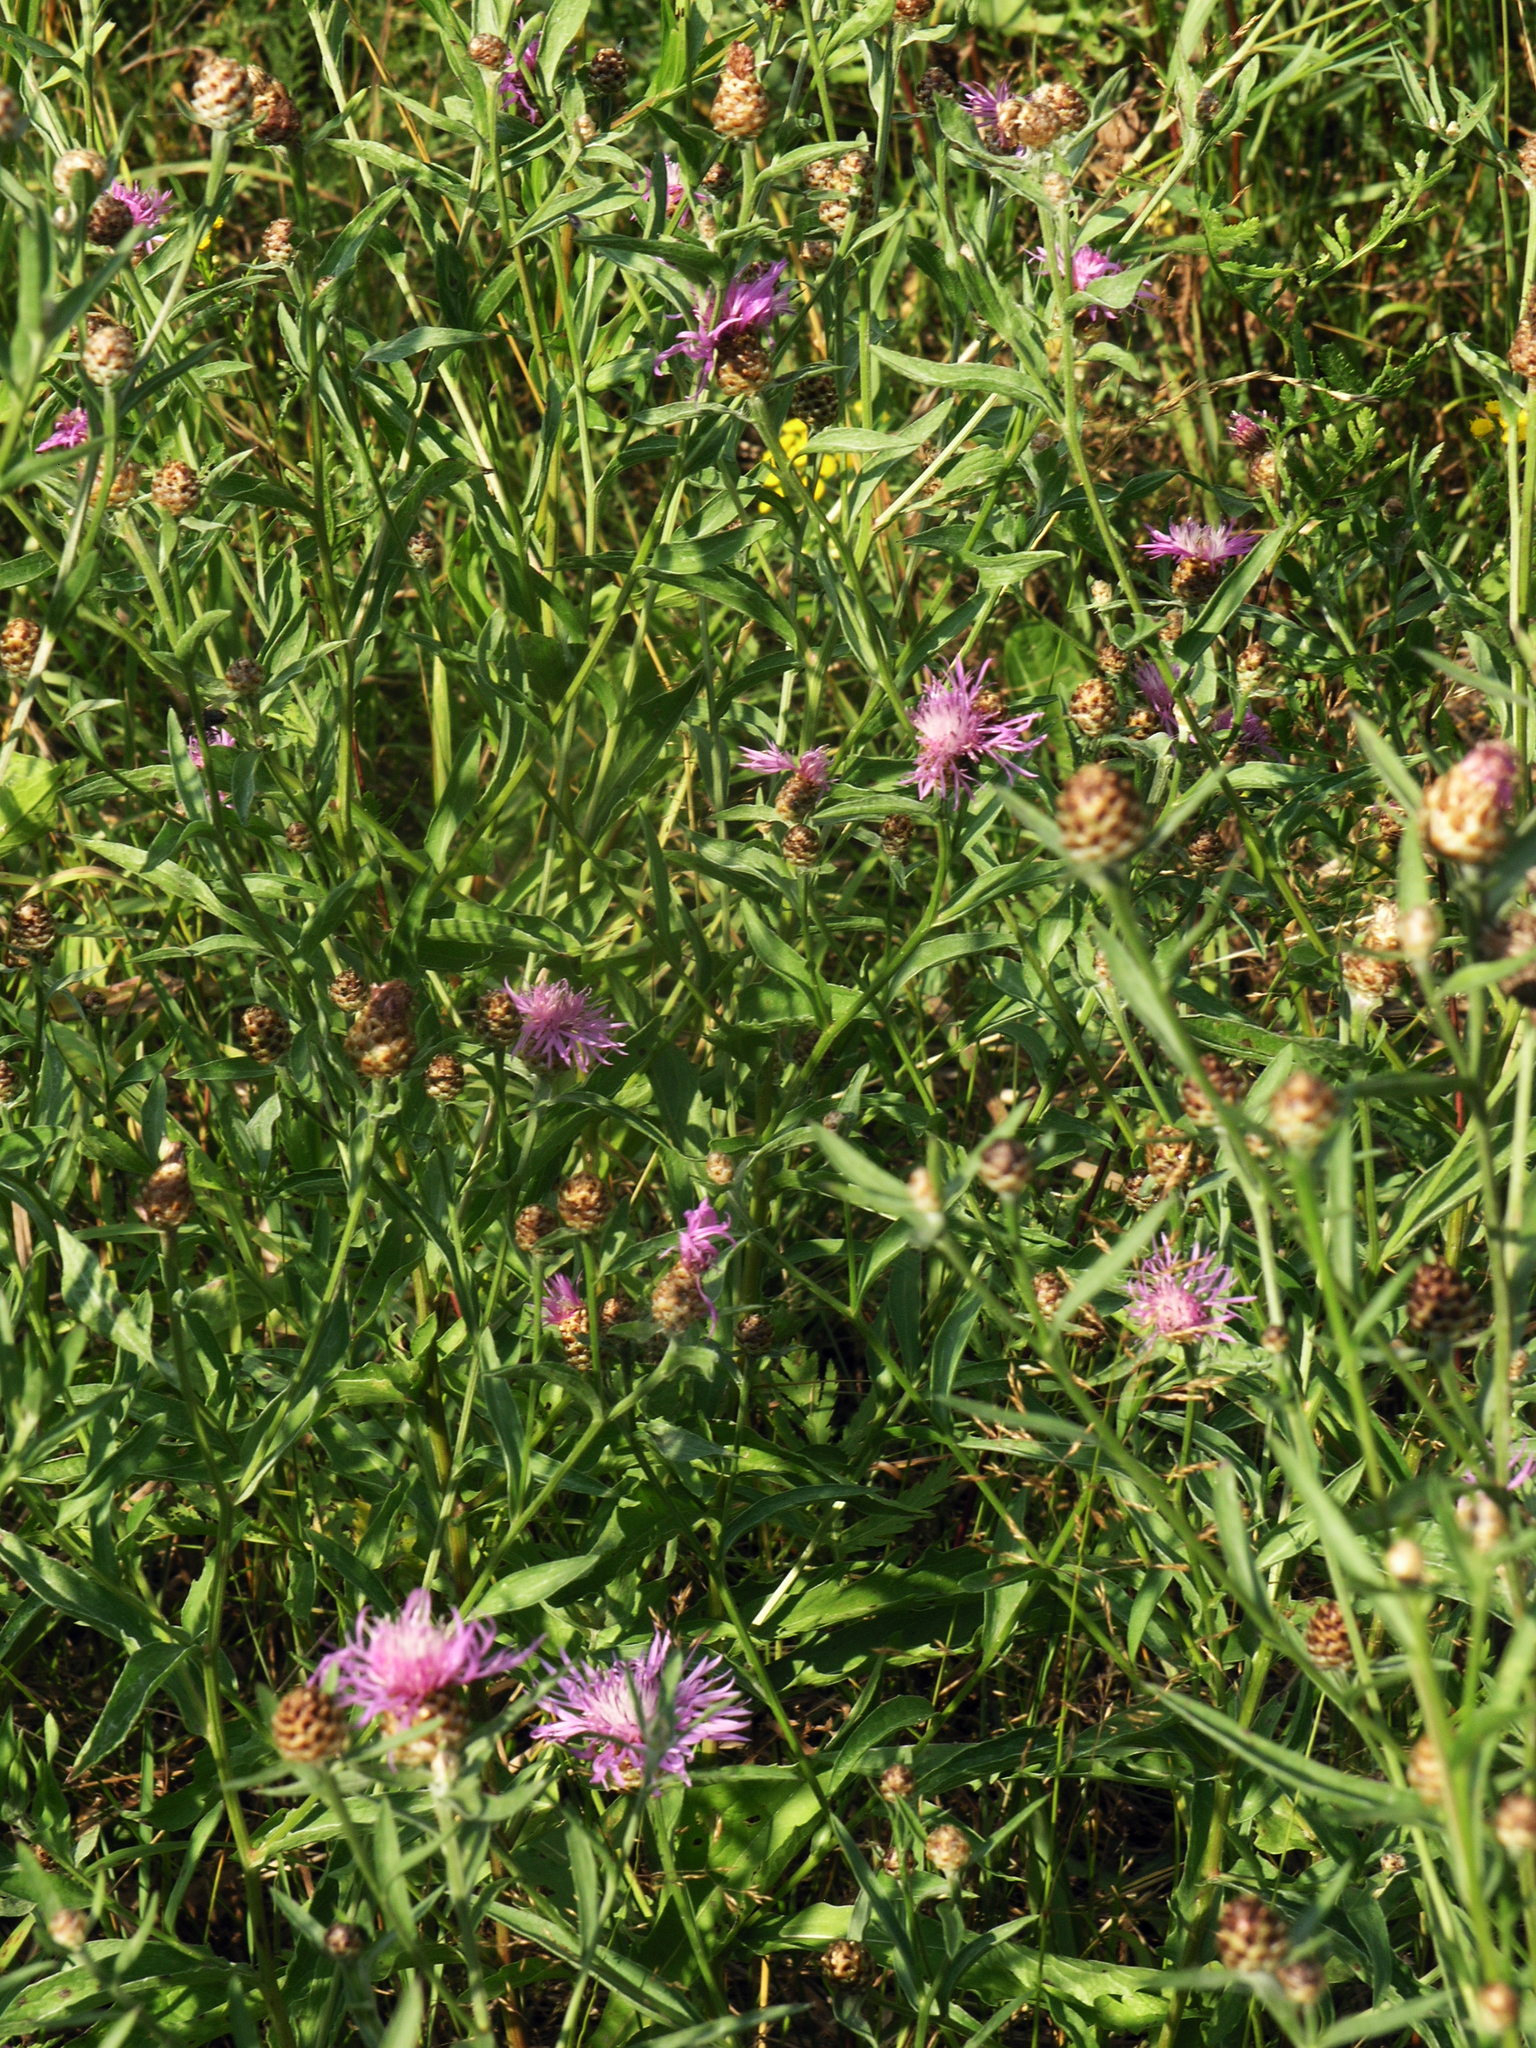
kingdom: Plantae
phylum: Tracheophyta
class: Magnoliopsida
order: Asterales
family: Asteraceae
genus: Centaurea
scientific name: Centaurea jacea
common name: Brown knapweed
